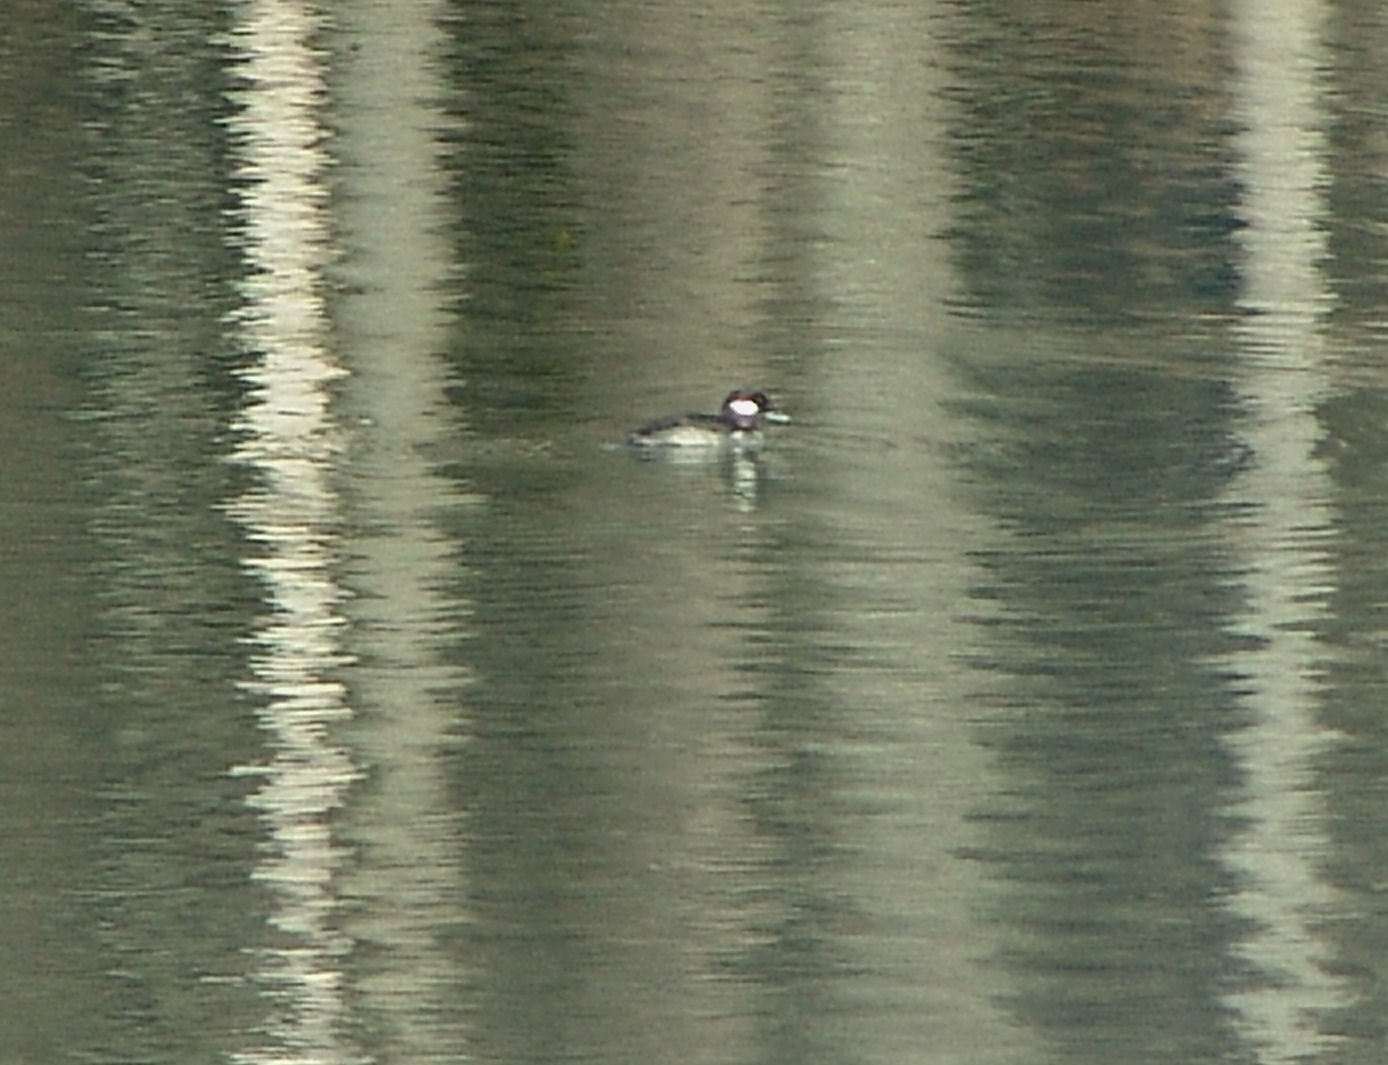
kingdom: Animalia
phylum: Chordata
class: Aves
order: Anseriformes
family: Anatidae
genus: Bucephala
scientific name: Bucephala albeola
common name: Bufflehead
